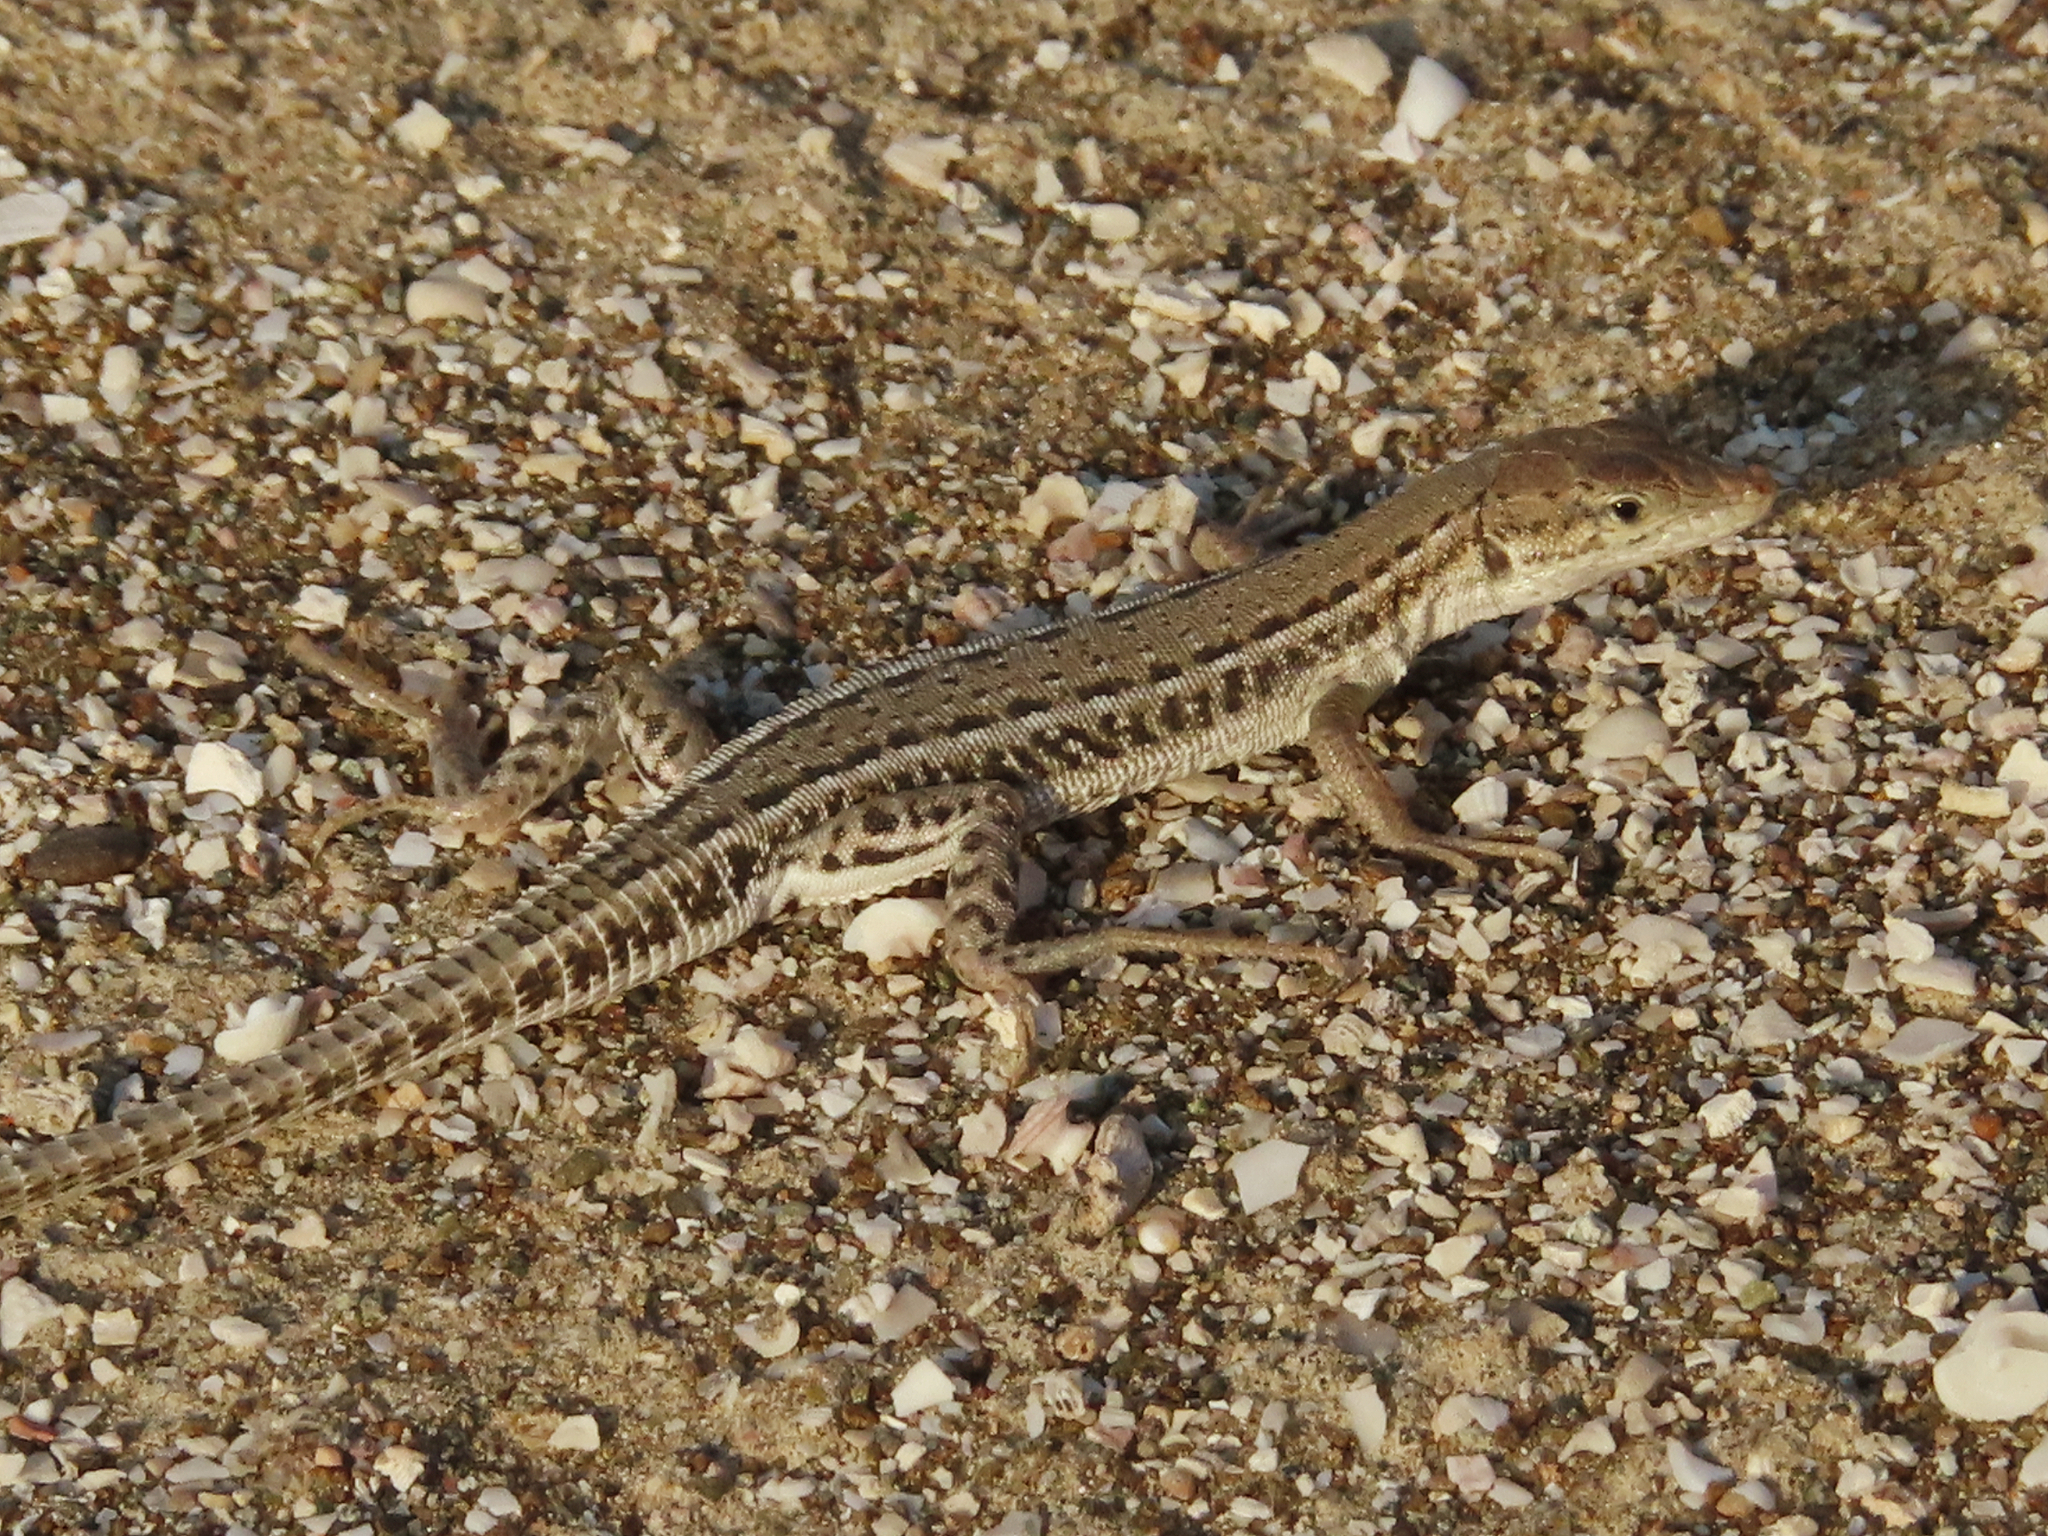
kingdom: Animalia
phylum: Chordata
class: Squamata
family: Lacertidae
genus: Mesalina
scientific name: Mesalina adramitana
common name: Hadramaut sand lizard
